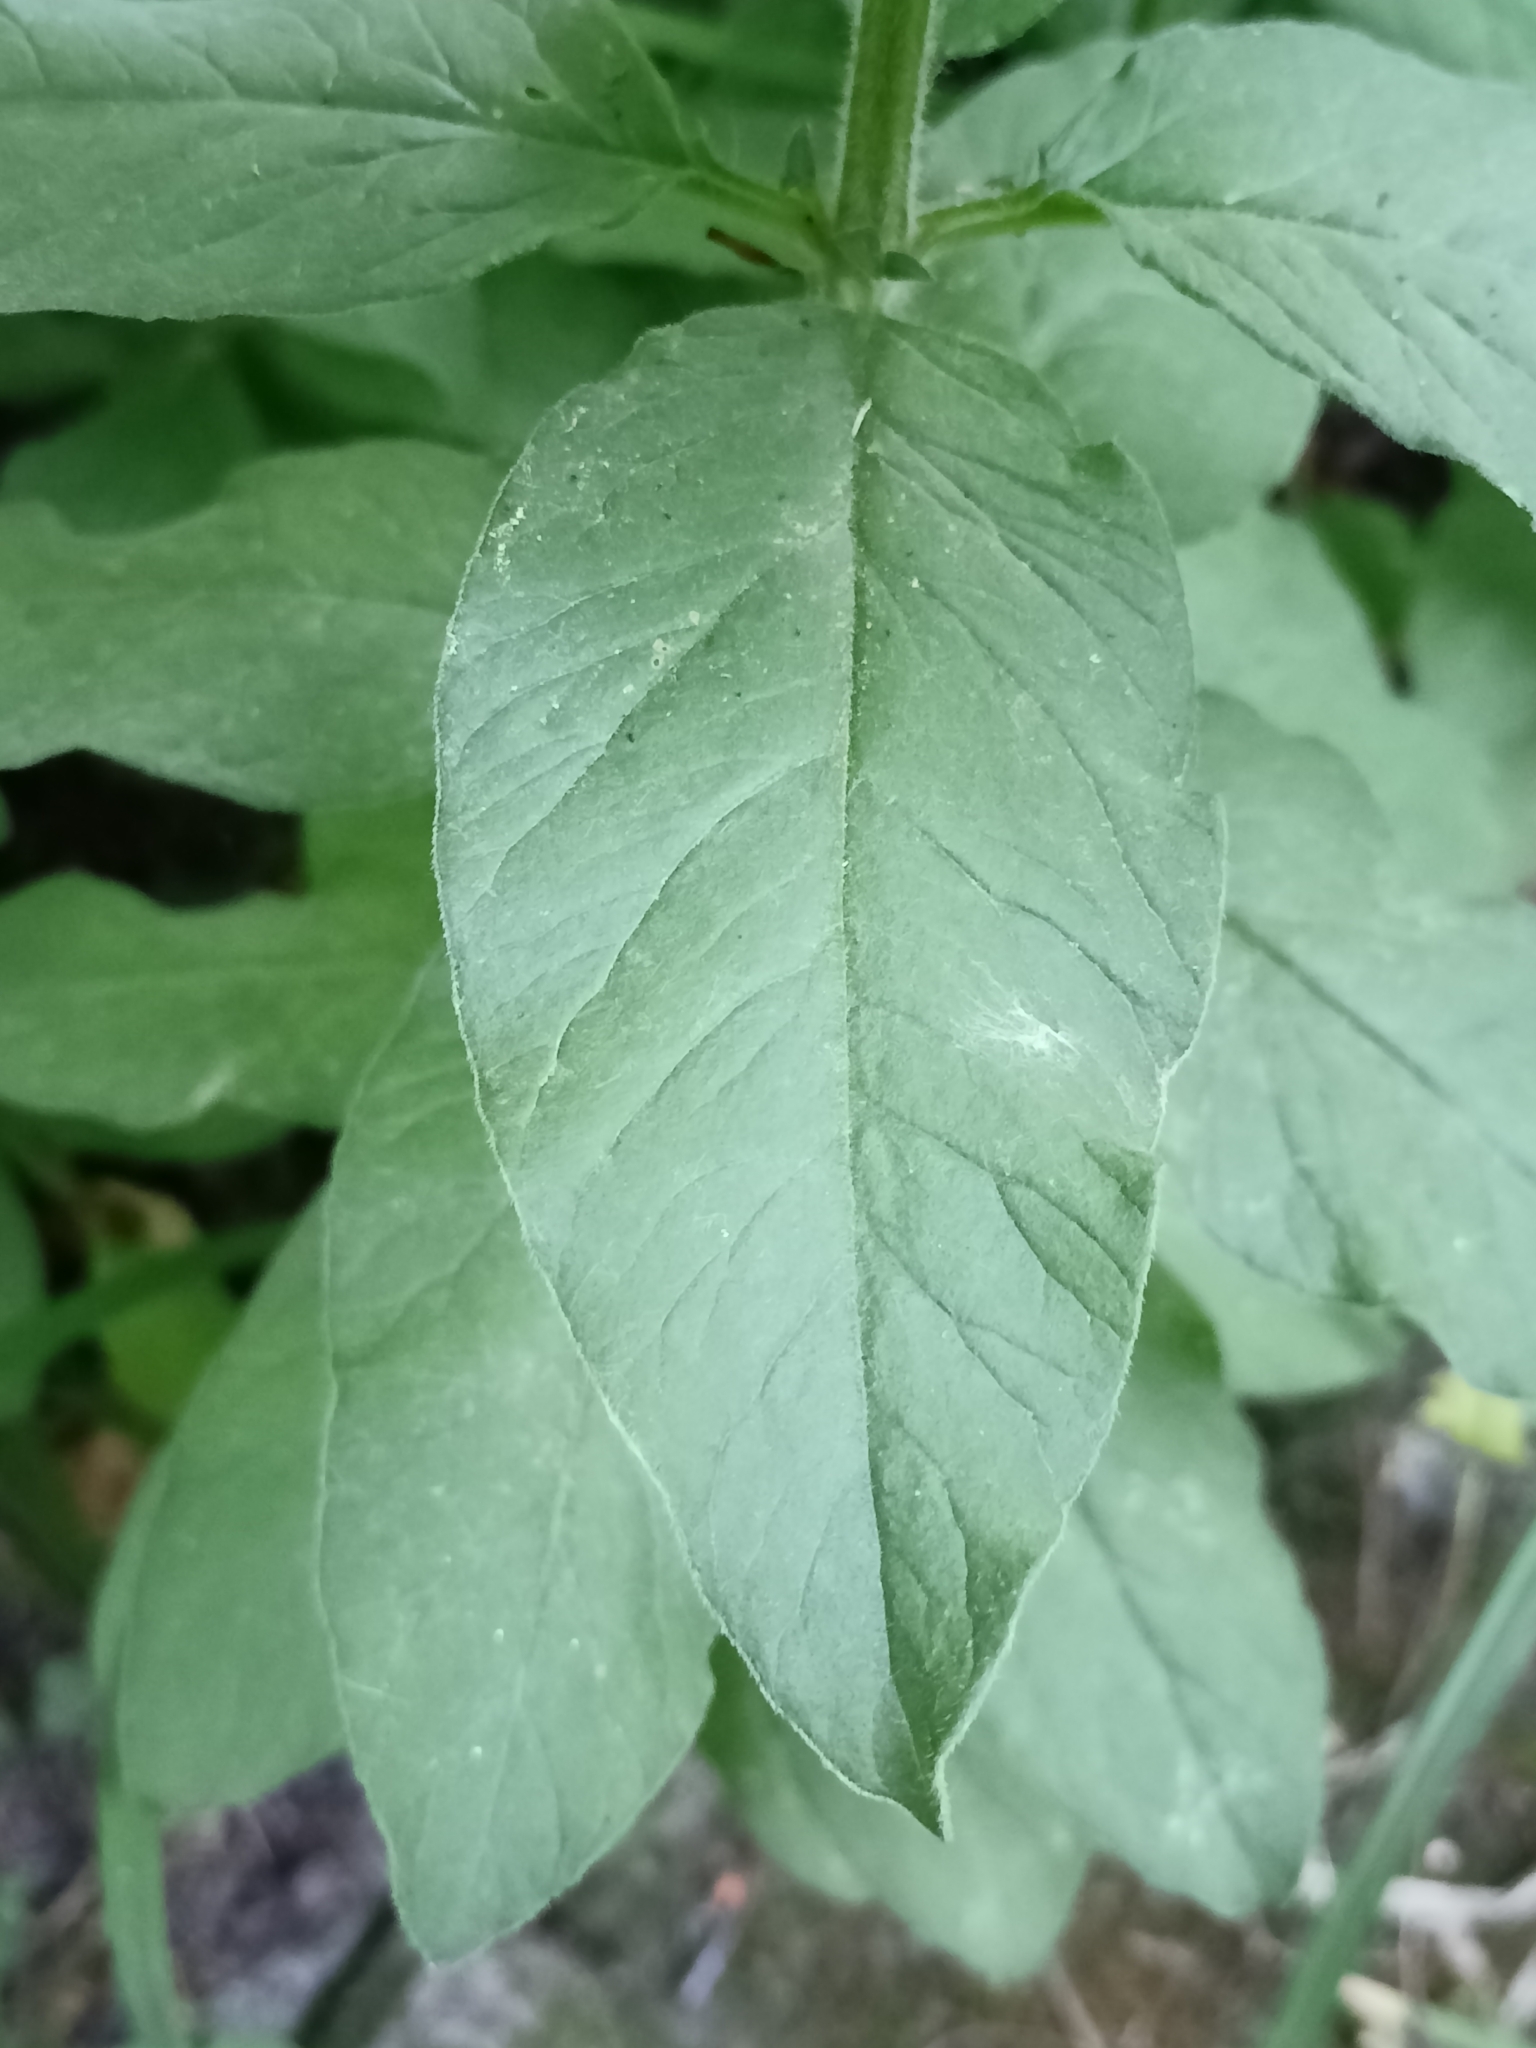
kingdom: Plantae
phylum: Tracheophyta
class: Magnoliopsida
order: Ericales
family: Primulaceae
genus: Lysimachia
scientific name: Lysimachia punctata
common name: Dotted loosestrife
